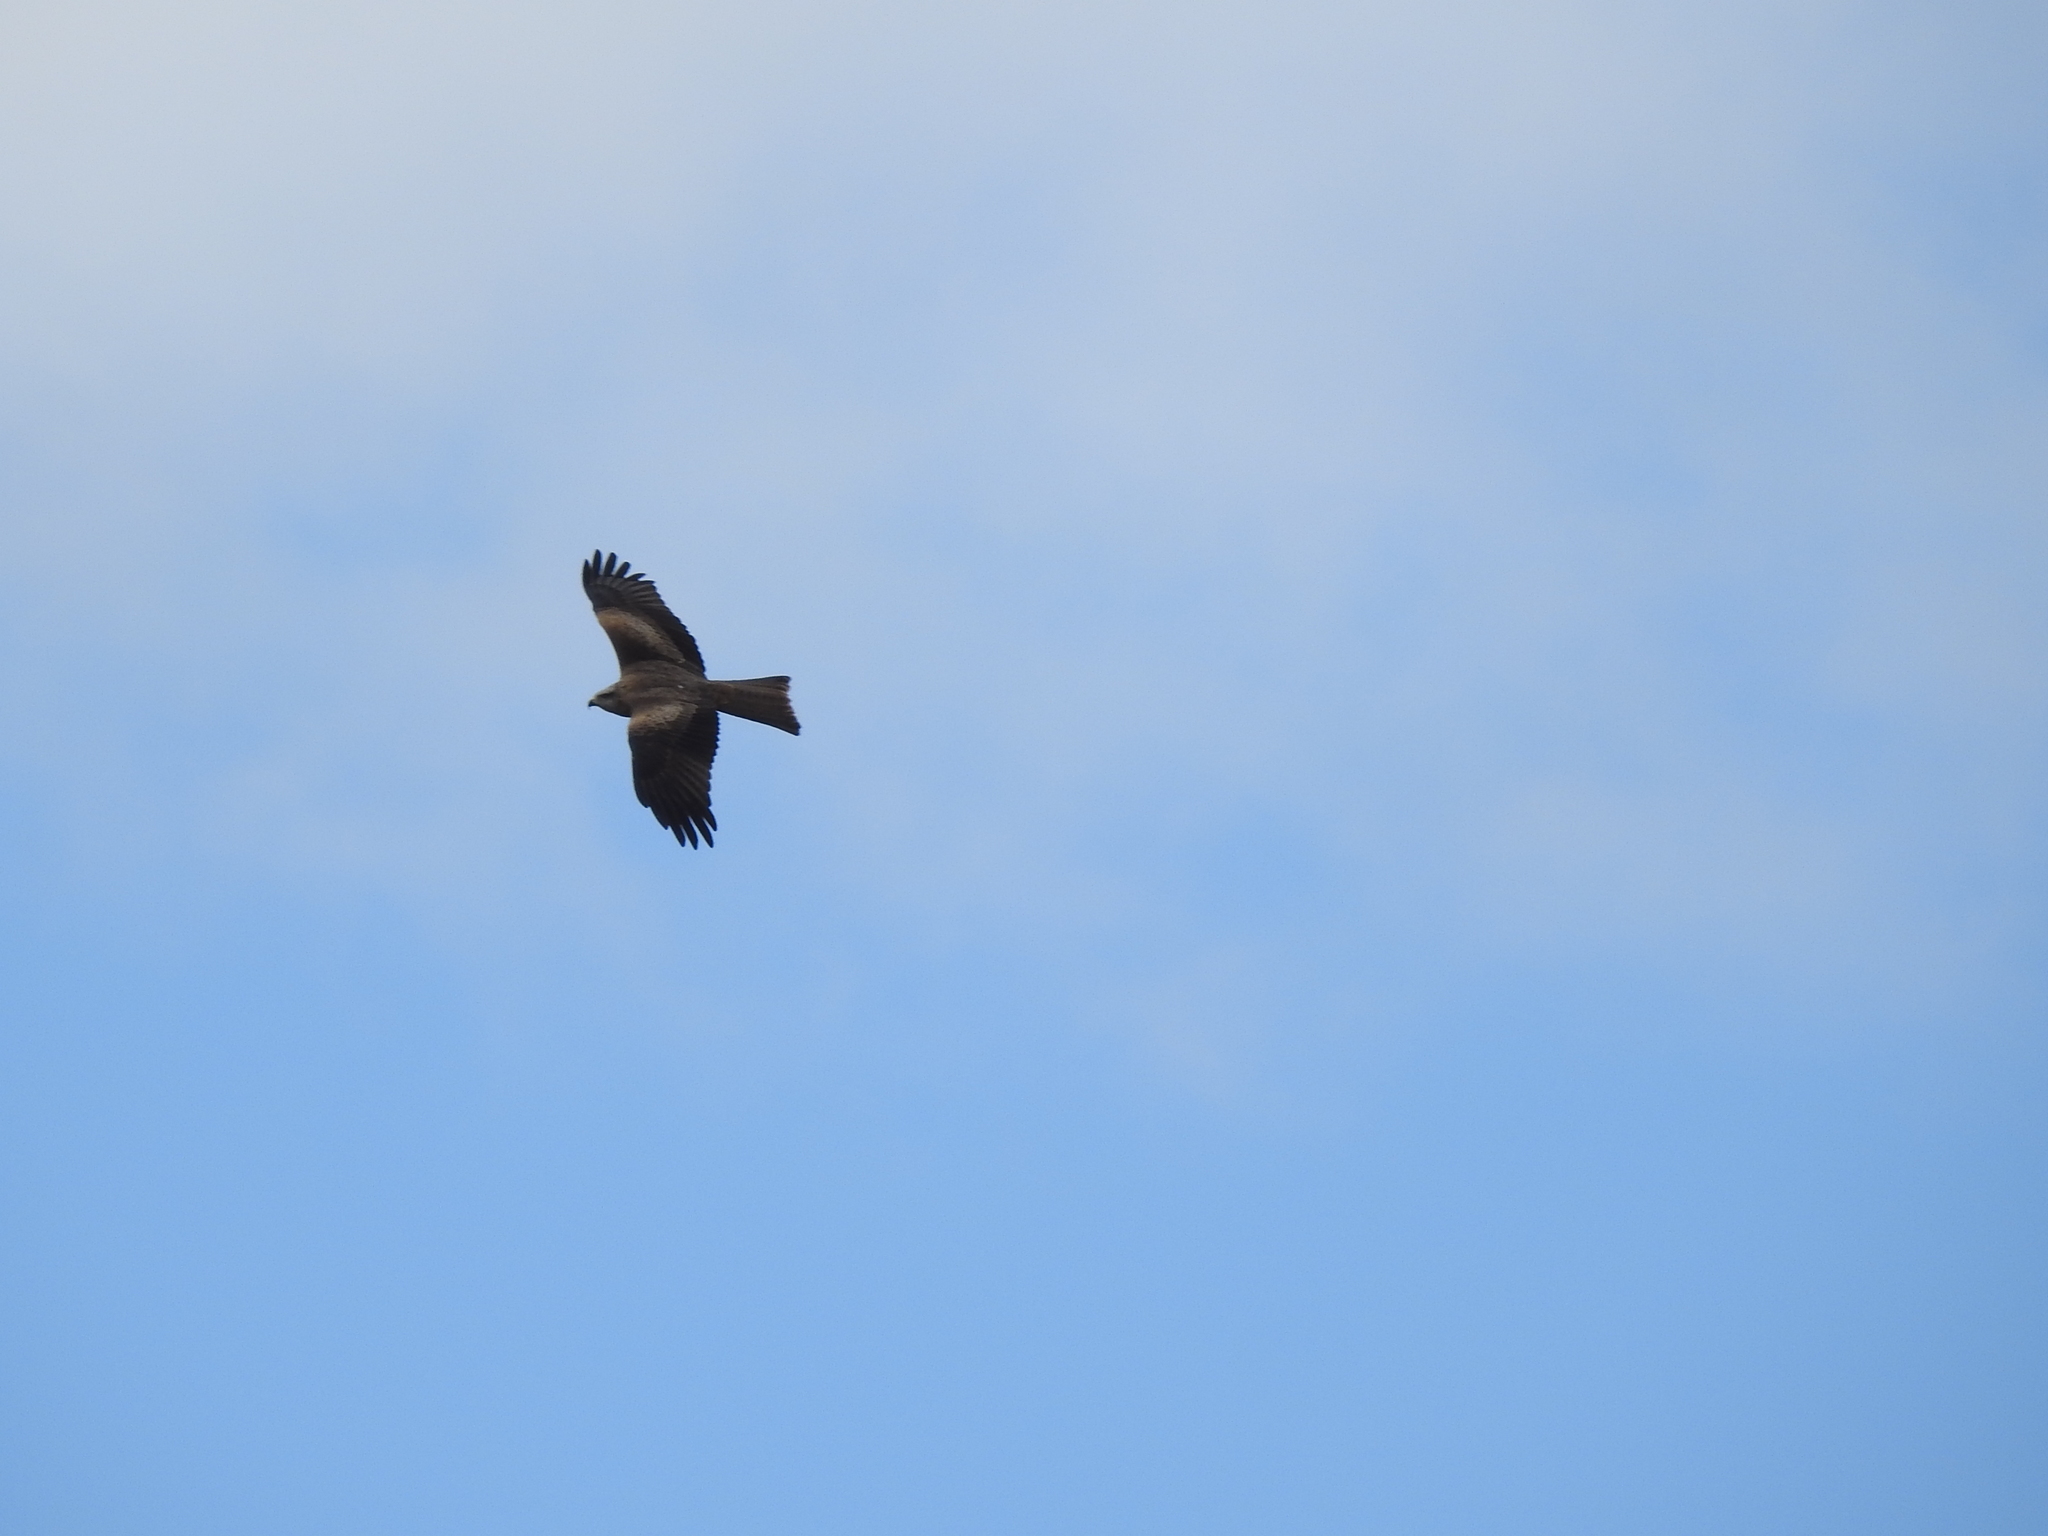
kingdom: Animalia
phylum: Chordata
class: Aves
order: Accipitriformes
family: Accipitridae
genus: Milvus
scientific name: Milvus migrans
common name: Black kite
